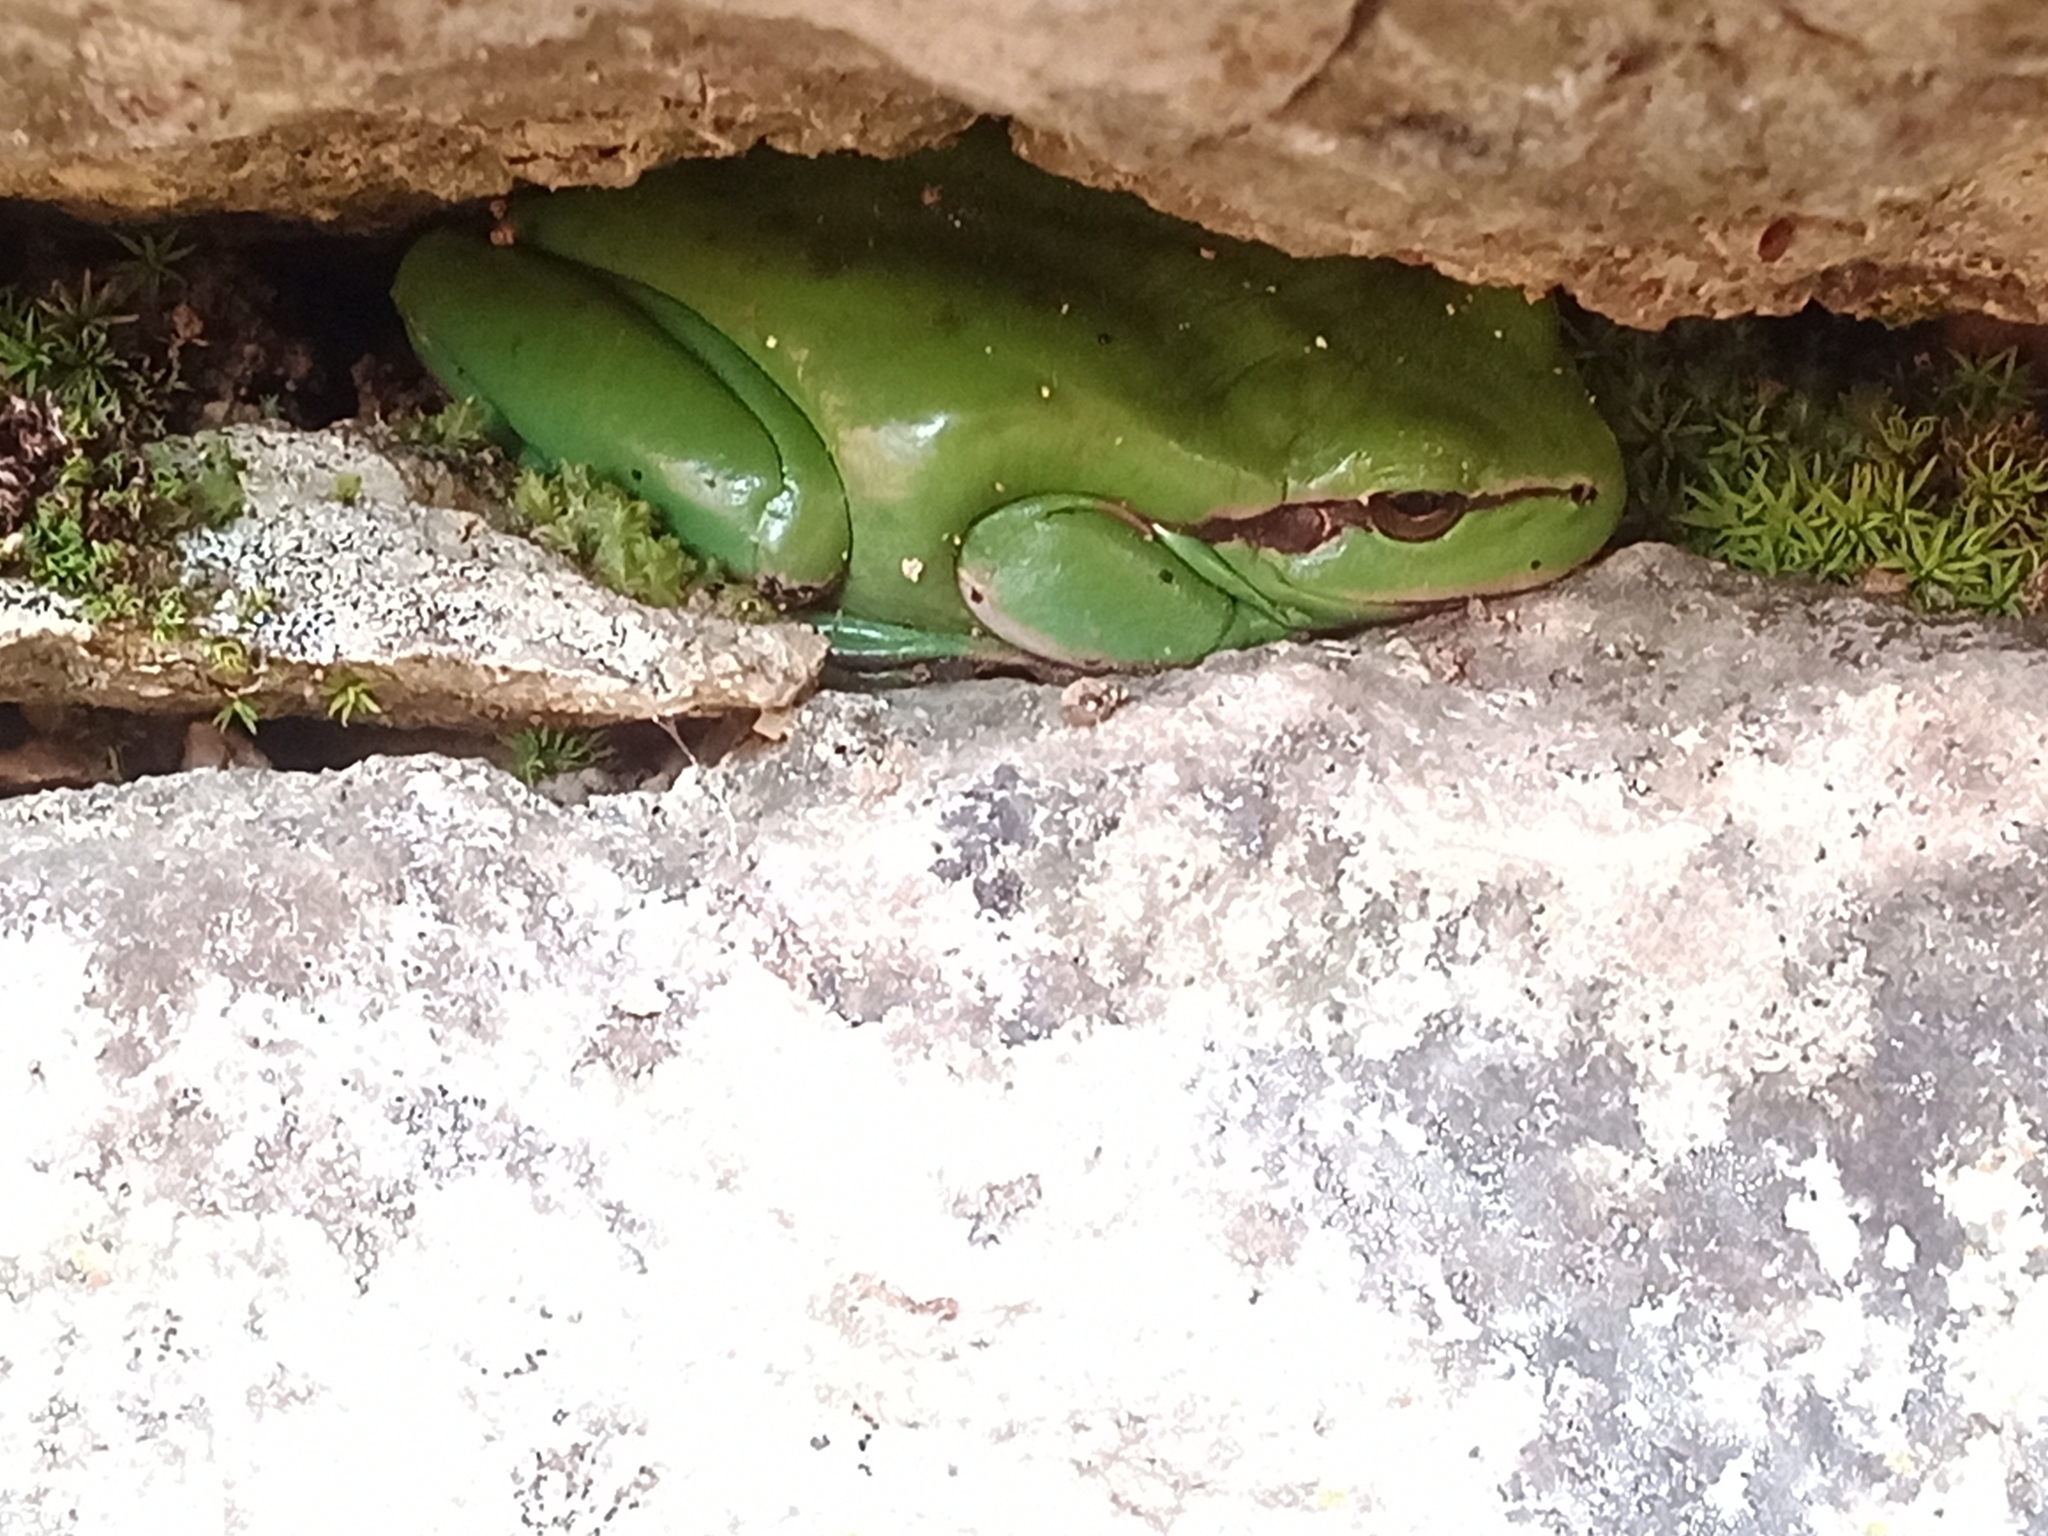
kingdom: Animalia
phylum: Chordata
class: Amphibia
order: Anura
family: Hylidae
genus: Hyla
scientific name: Hyla meridionalis
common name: Stripeless tree frog
